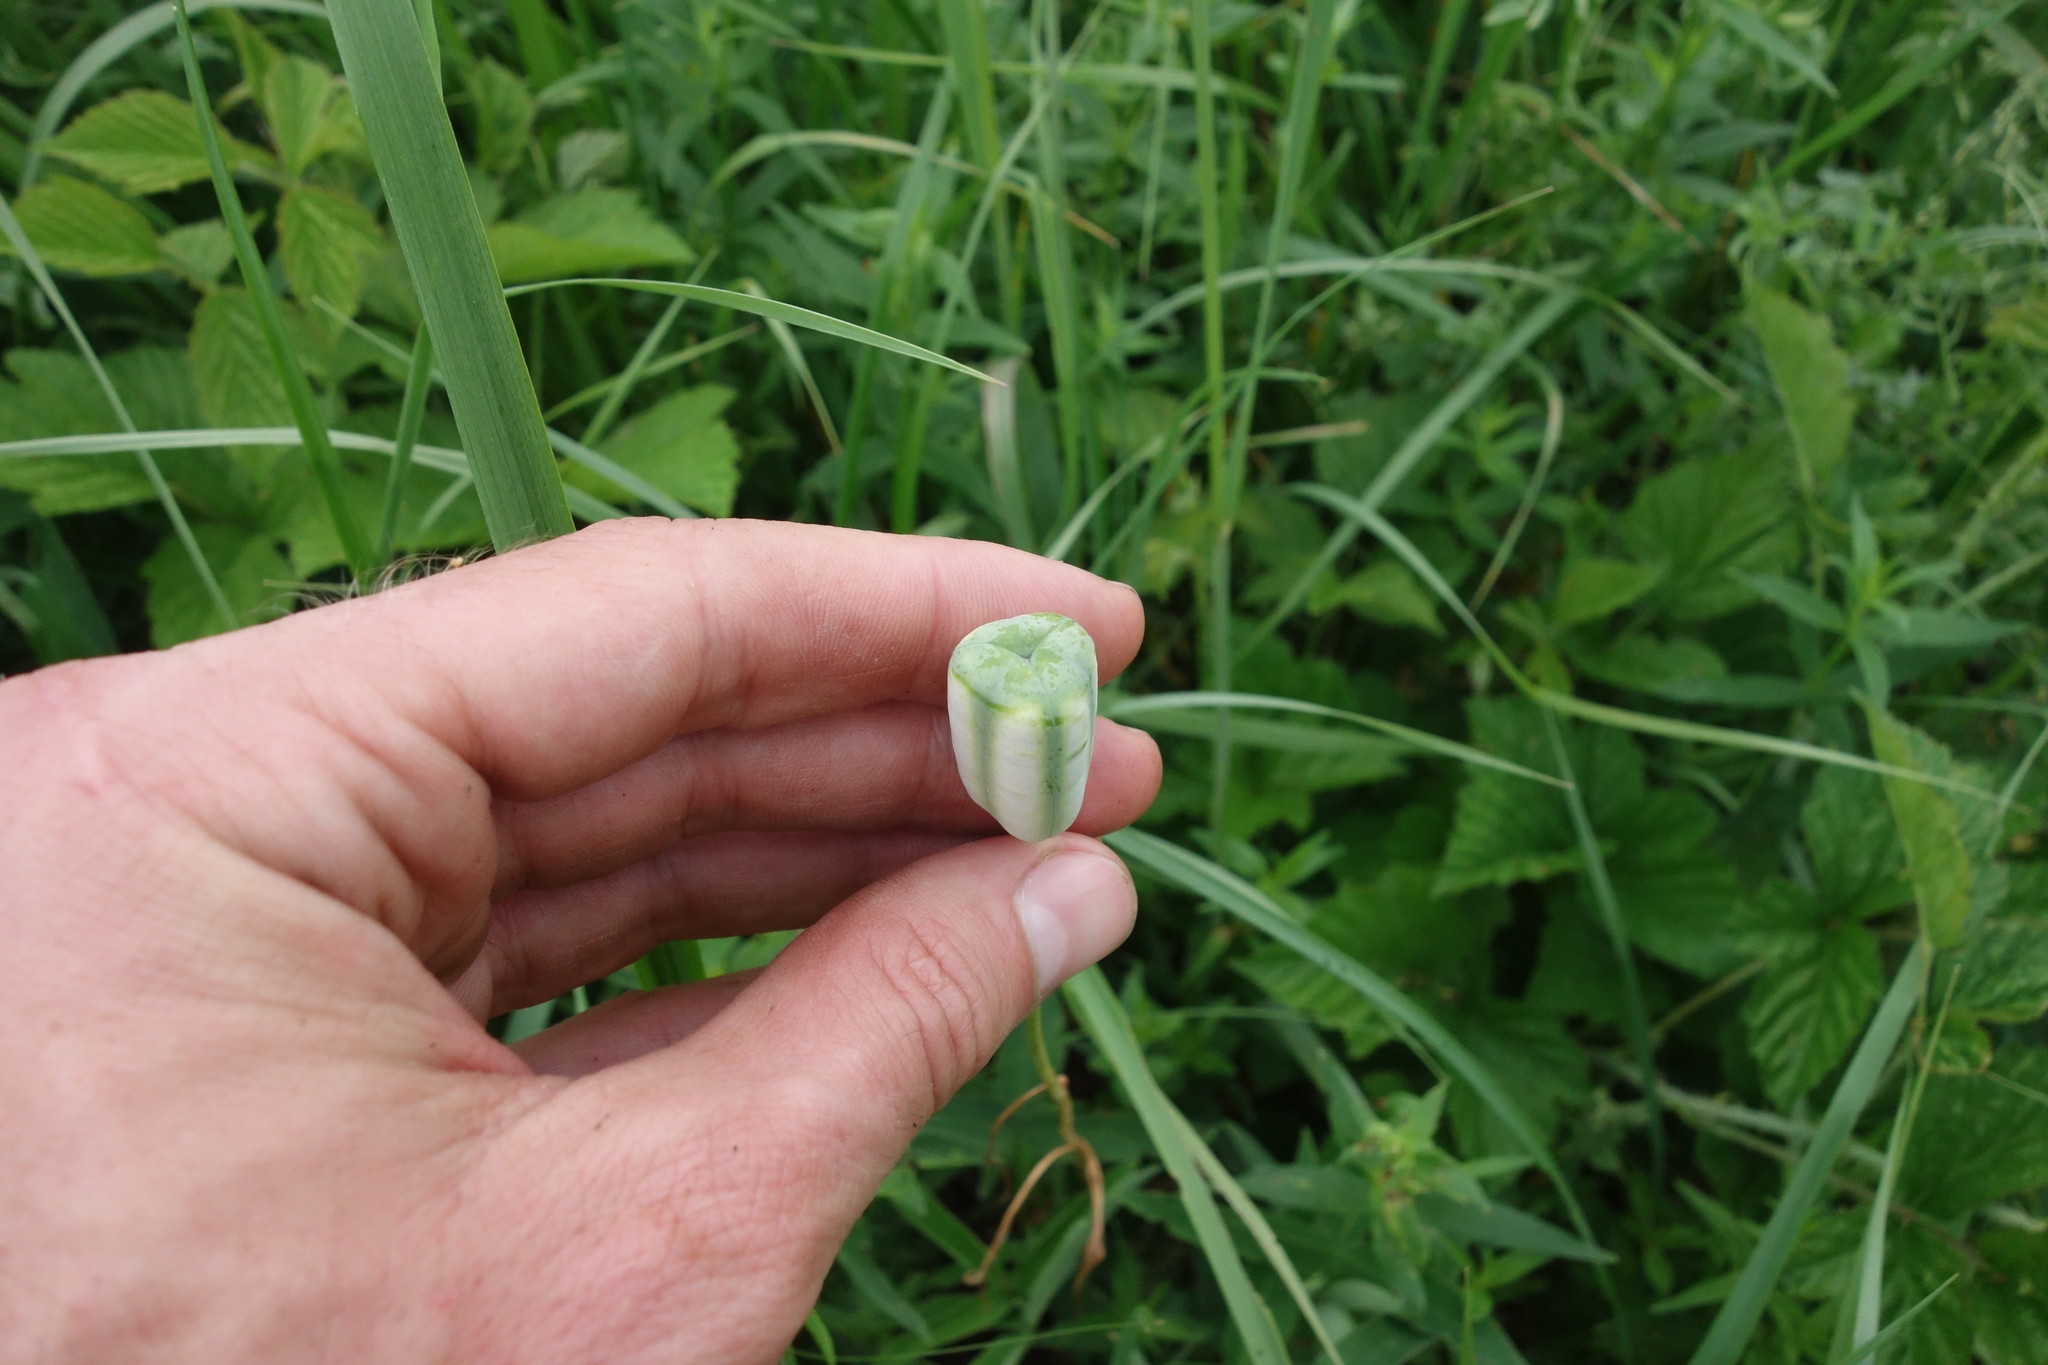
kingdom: Plantae
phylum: Tracheophyta
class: Liliopsida
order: Liliales
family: Liliaceae
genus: Fritillaria
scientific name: Fritillaria meleagroides
